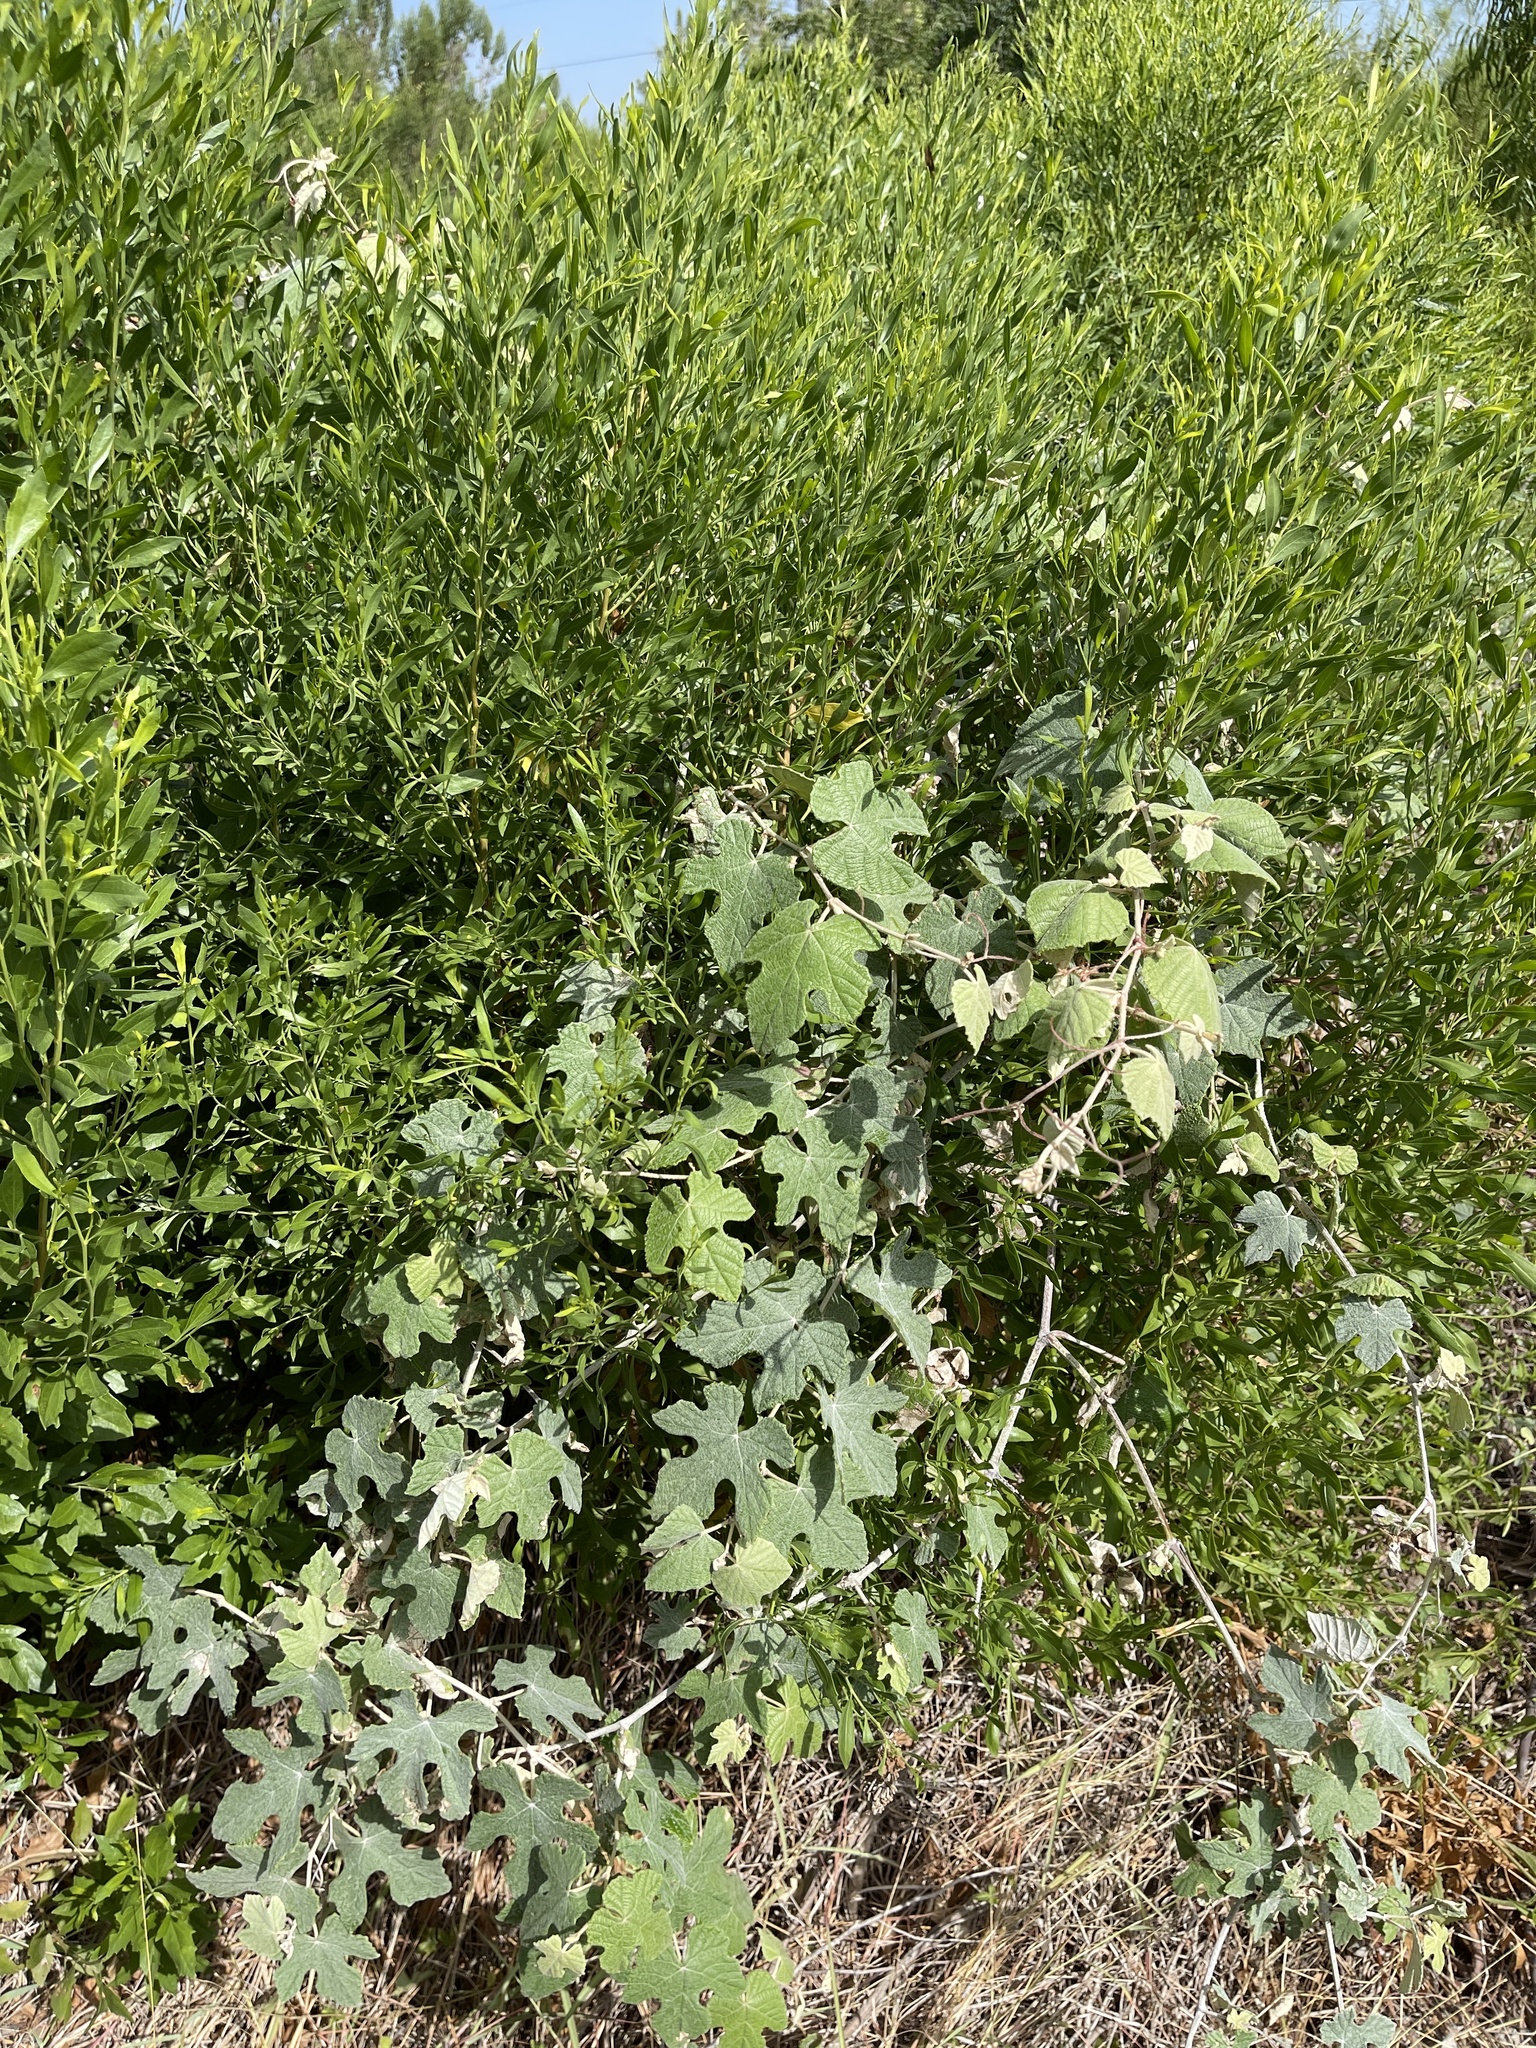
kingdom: Plantae
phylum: Tracheophyta
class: Magnoliopsida
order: Vitales
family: Vitaceae
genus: Vitis
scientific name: Vitis mustangensis
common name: Mustang grape
